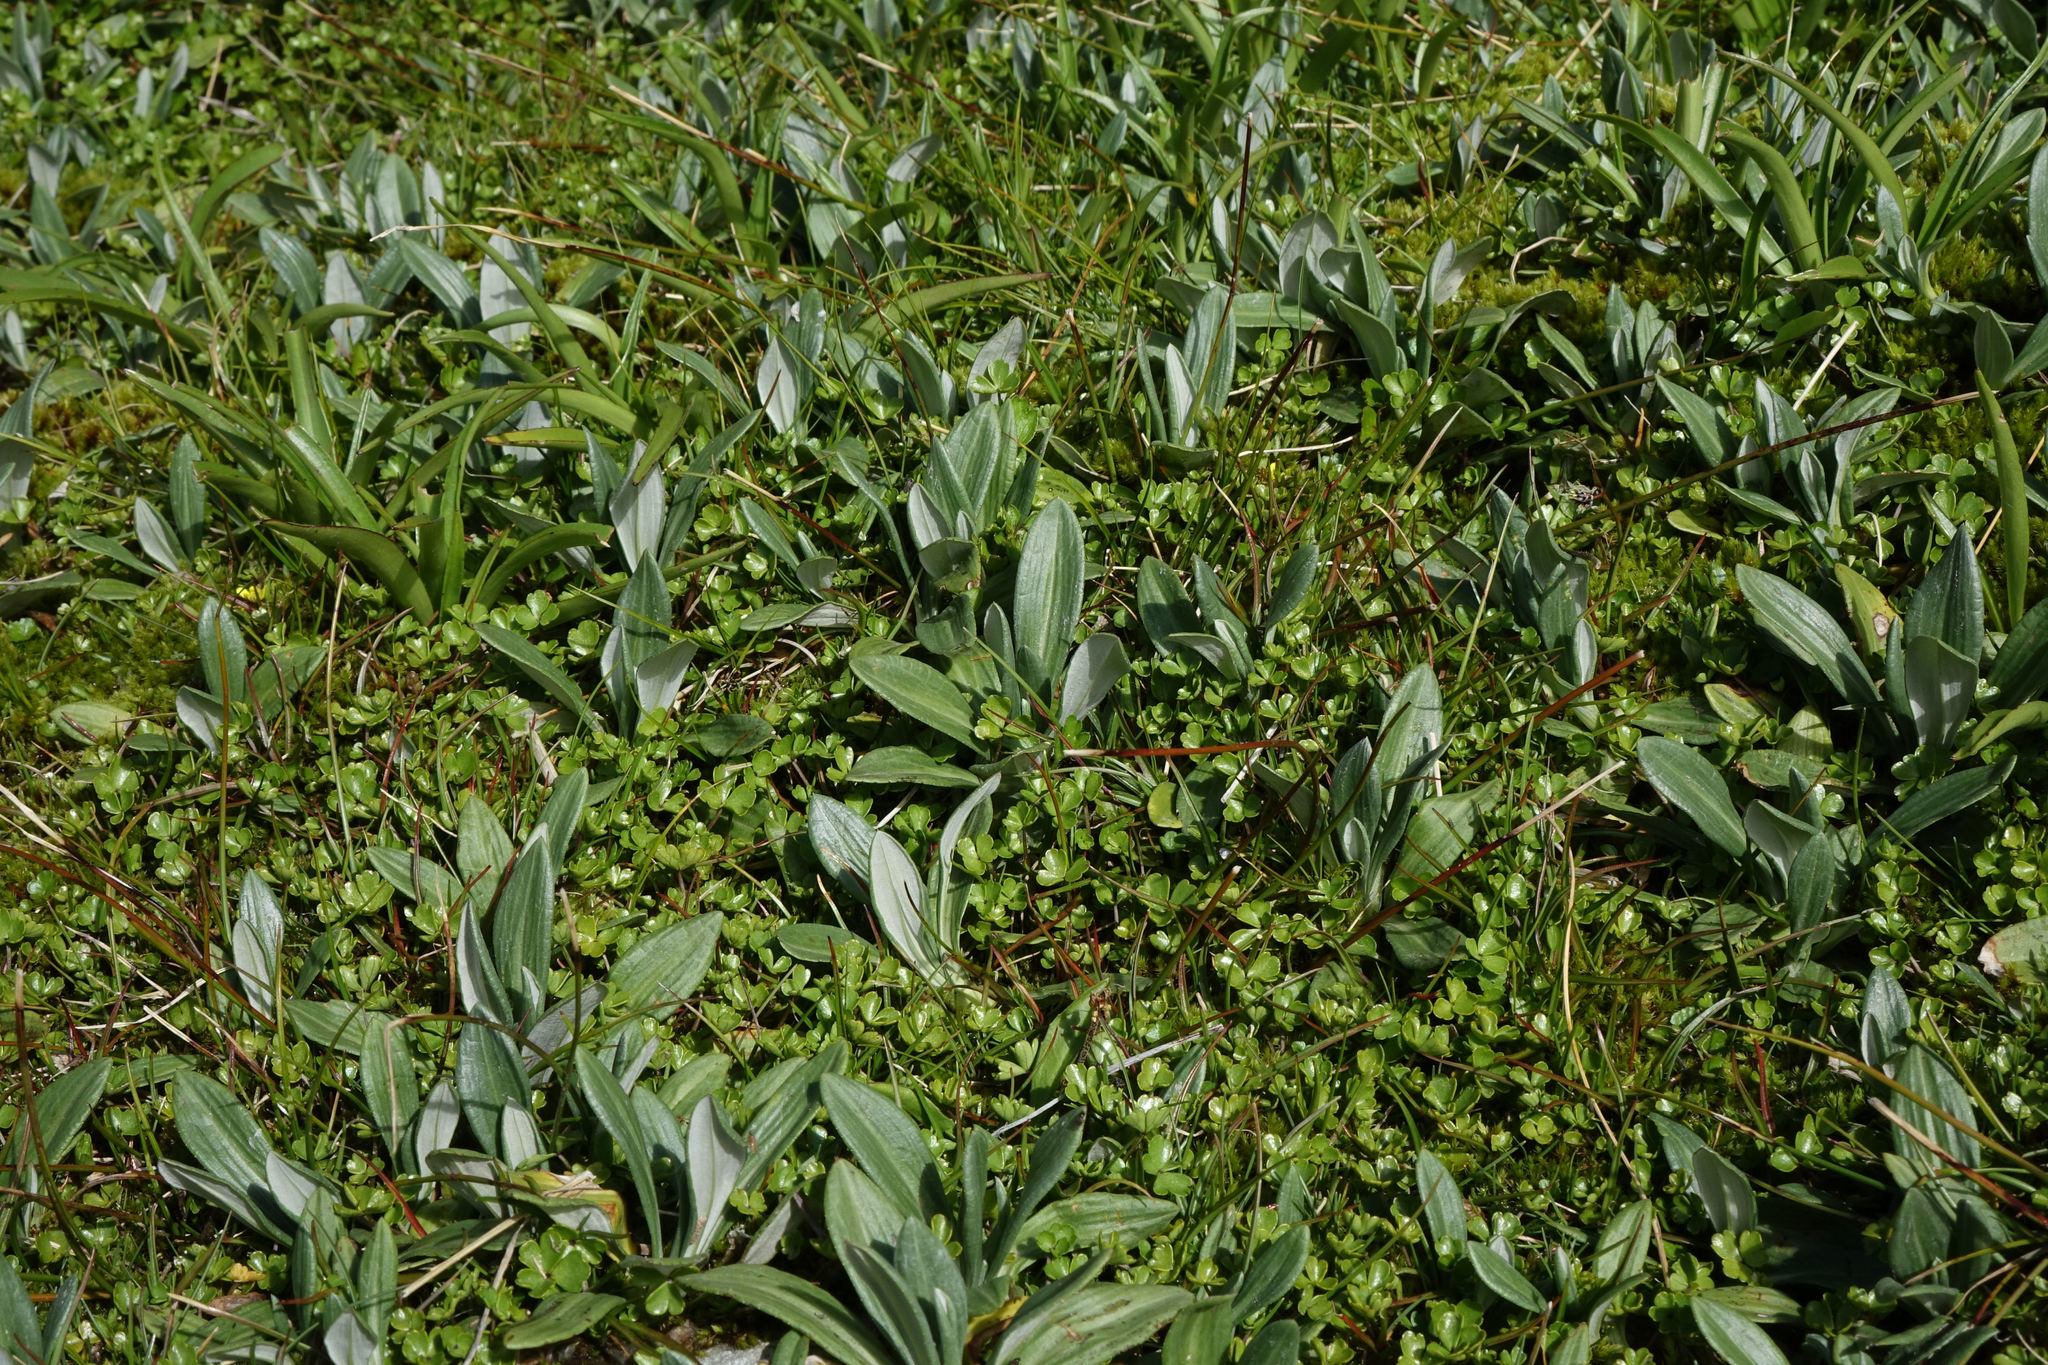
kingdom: Plantae
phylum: Tracheophyta
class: Magnoliopsida
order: Asterales
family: Asteraceae
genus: Celmisia
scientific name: Celmisia haastii
